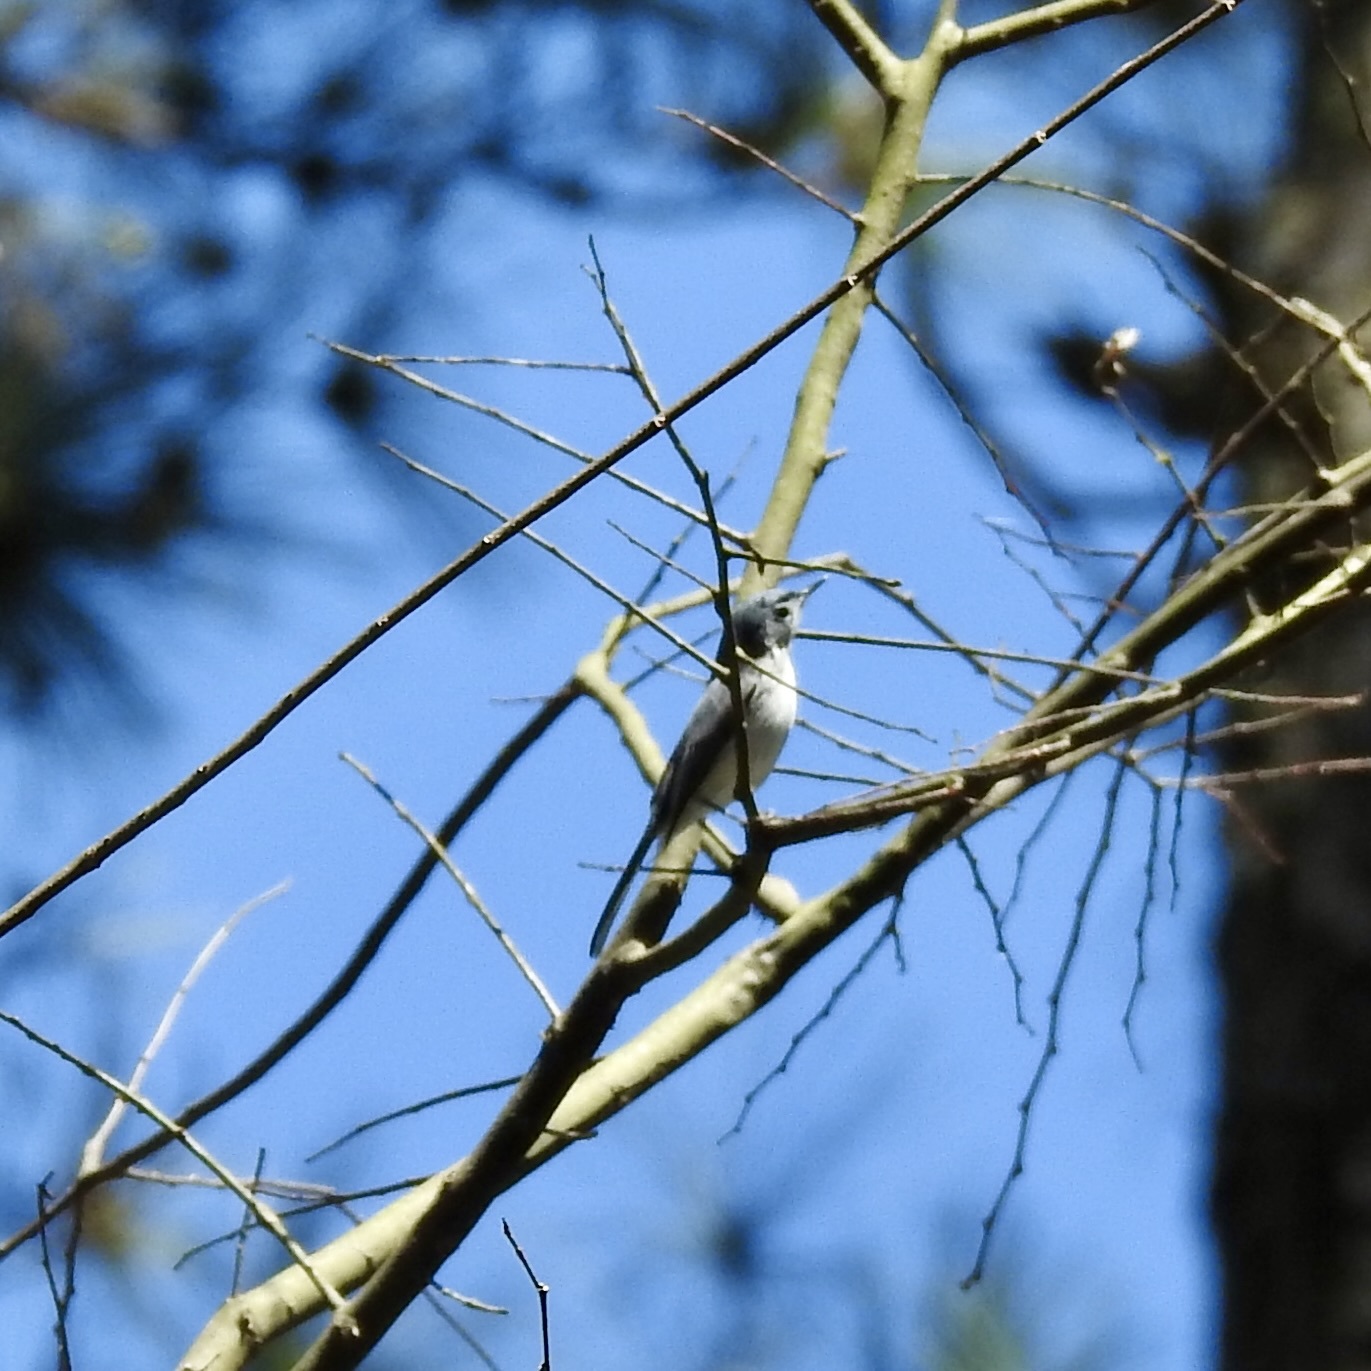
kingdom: Animalia
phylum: Chordata
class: Aves
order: Passeriformes
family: Polioptilidae
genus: Polioptila
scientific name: Polioptila caerulea
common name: Blue-gray gnatcatcher
